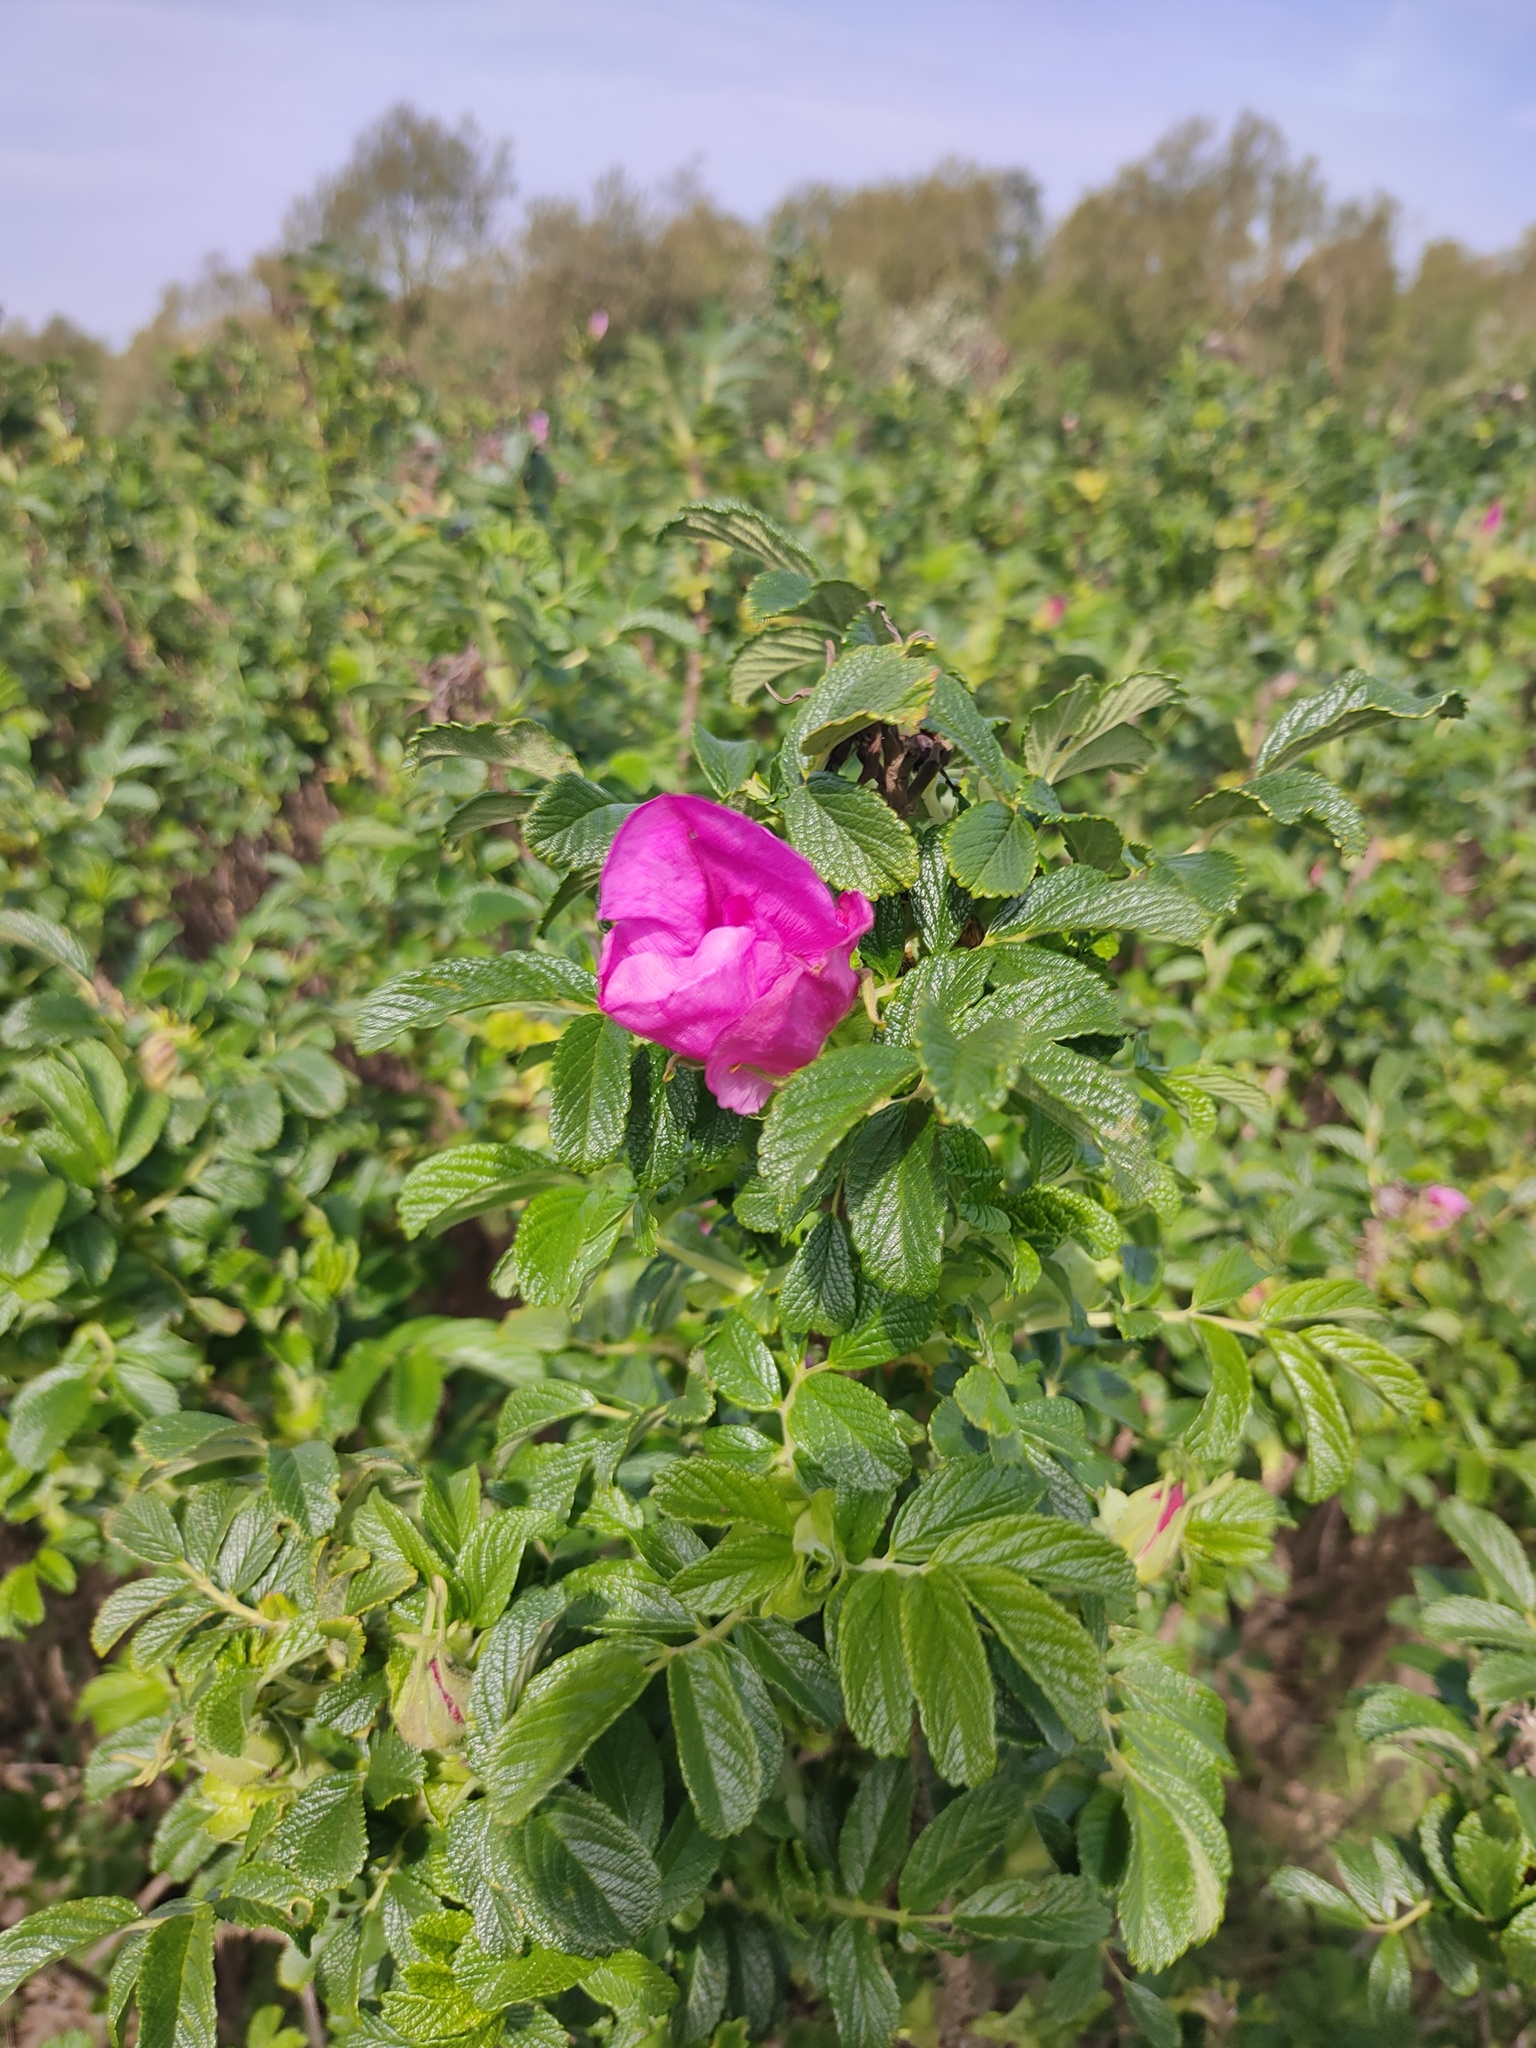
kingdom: Plantae
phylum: Tracheophyta
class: Magnoliopsida
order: Rosales
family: Rosaceae
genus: Rosa
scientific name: Rosa rugosa
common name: Japanese rose
